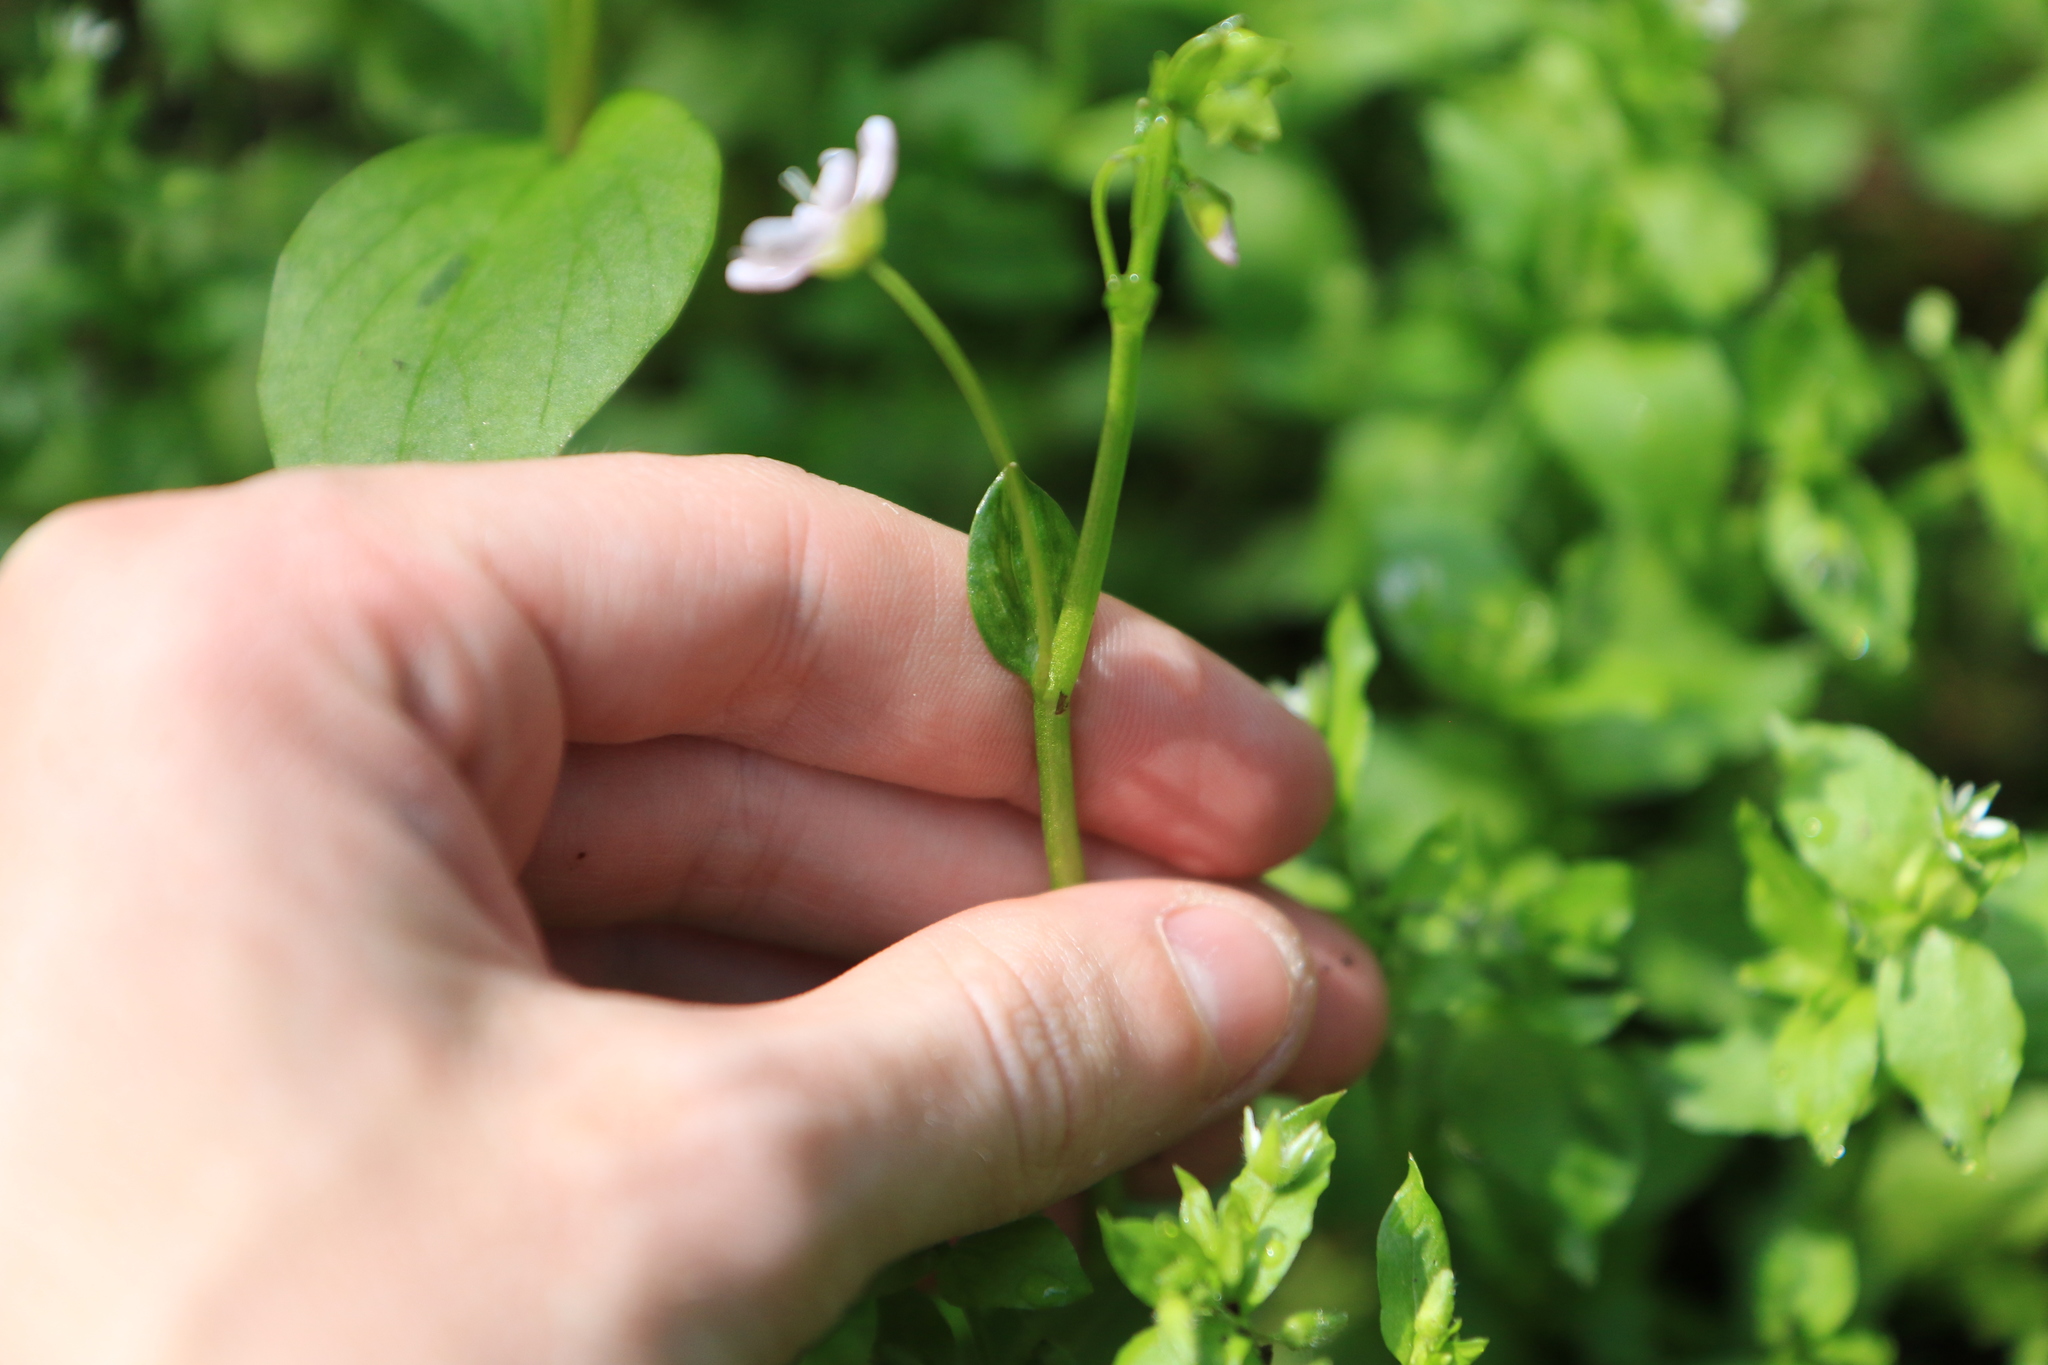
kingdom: Plantae
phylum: Tracheophyta
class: Magnoliopsida
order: Caryophyllales
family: Montiaceae
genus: Claytonia
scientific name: Claytonia sibirica
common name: Pink purslane
